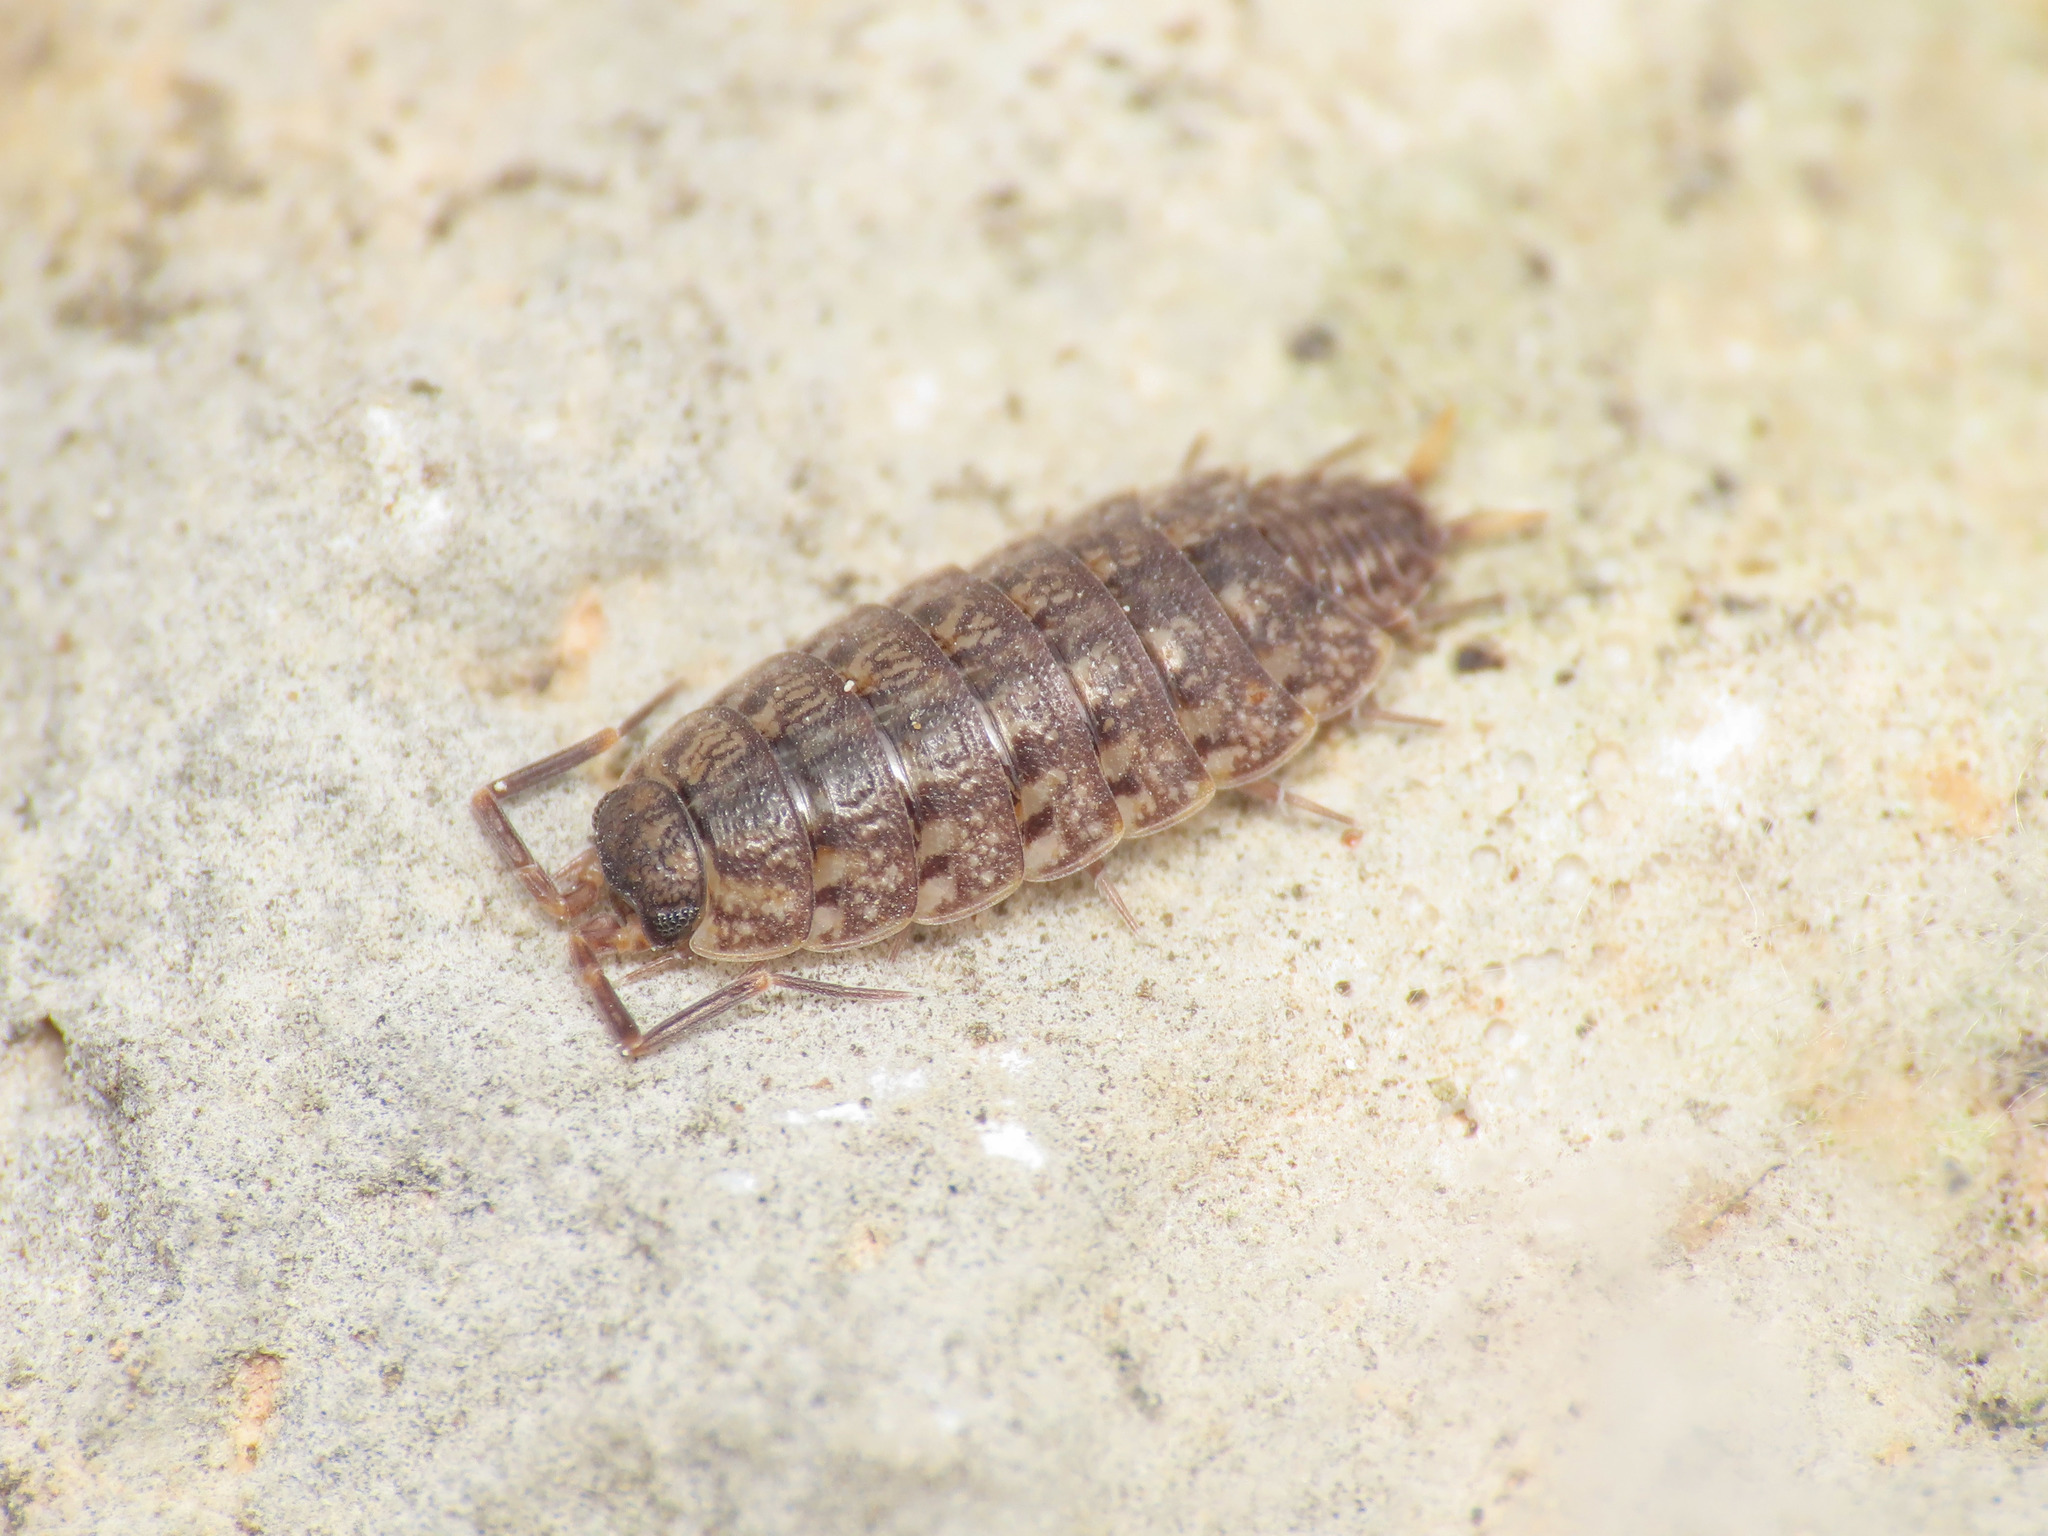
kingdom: Animalia
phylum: Arthropoda
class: Malacostraca
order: Isopoda
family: Agnaridae
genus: Orthometopon
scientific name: Orthometopon dalmatinum
